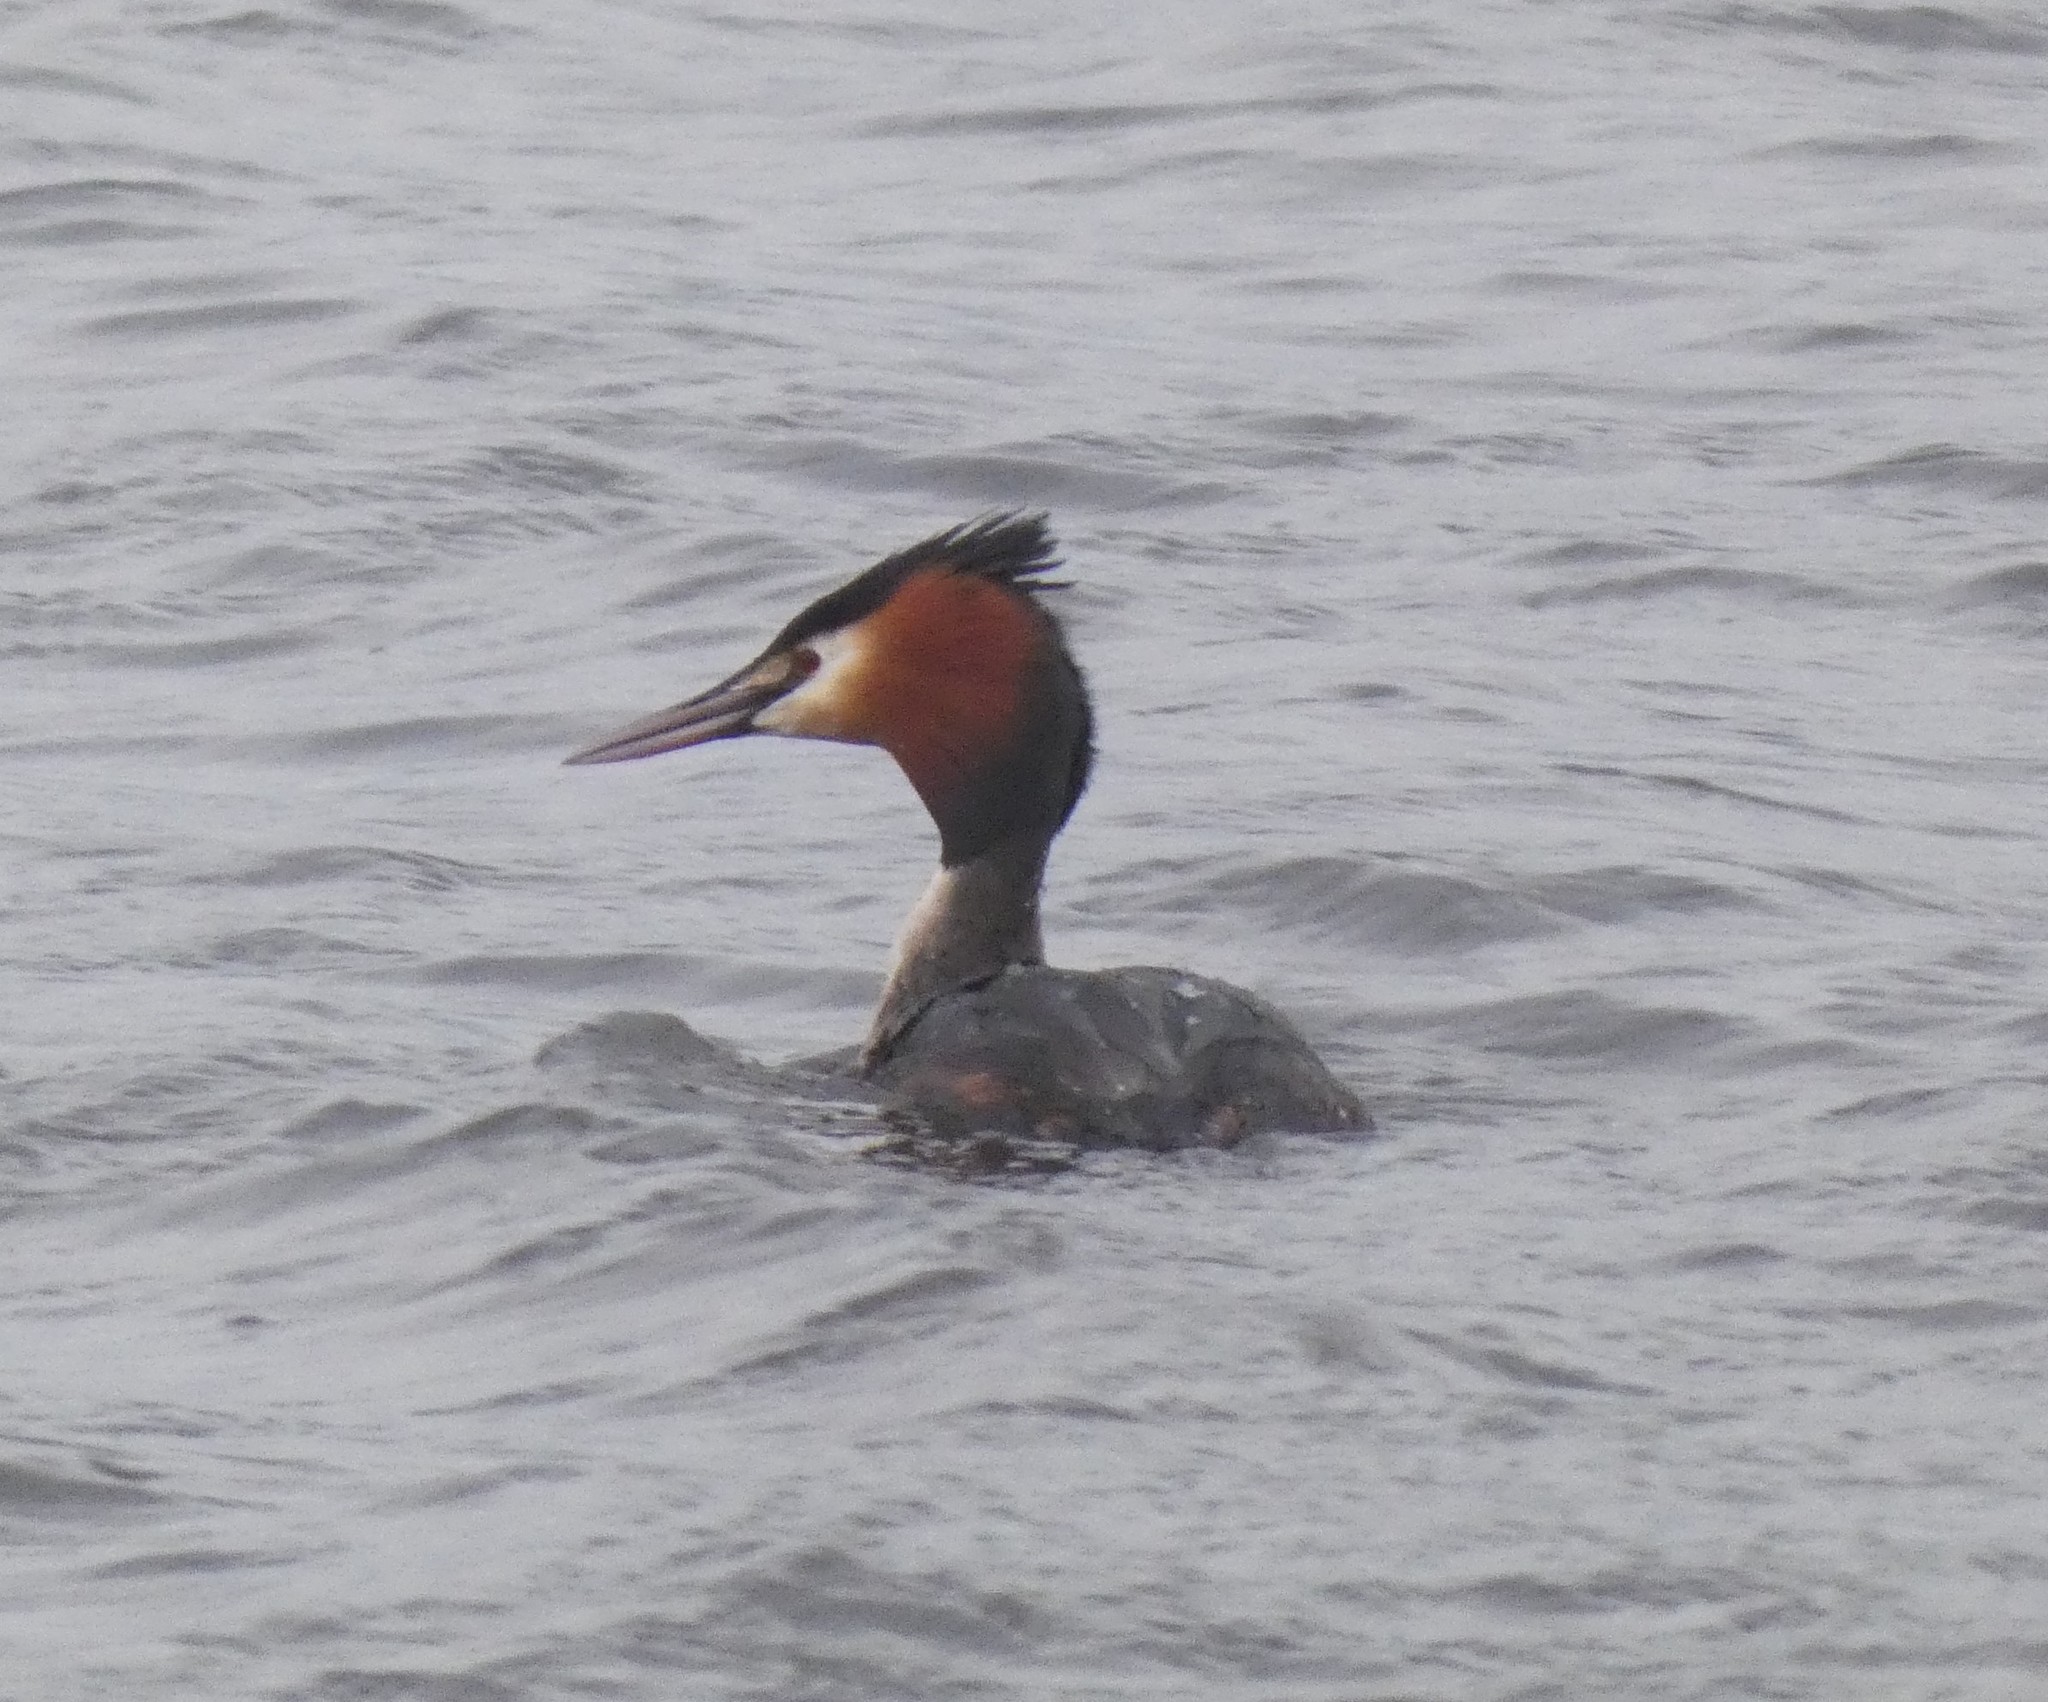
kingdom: Animalia
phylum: Chordata
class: Aves
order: Podicipediformes
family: Podicipedidae
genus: Podiceps
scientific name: Podiceps cristatus
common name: Great crested grebe
